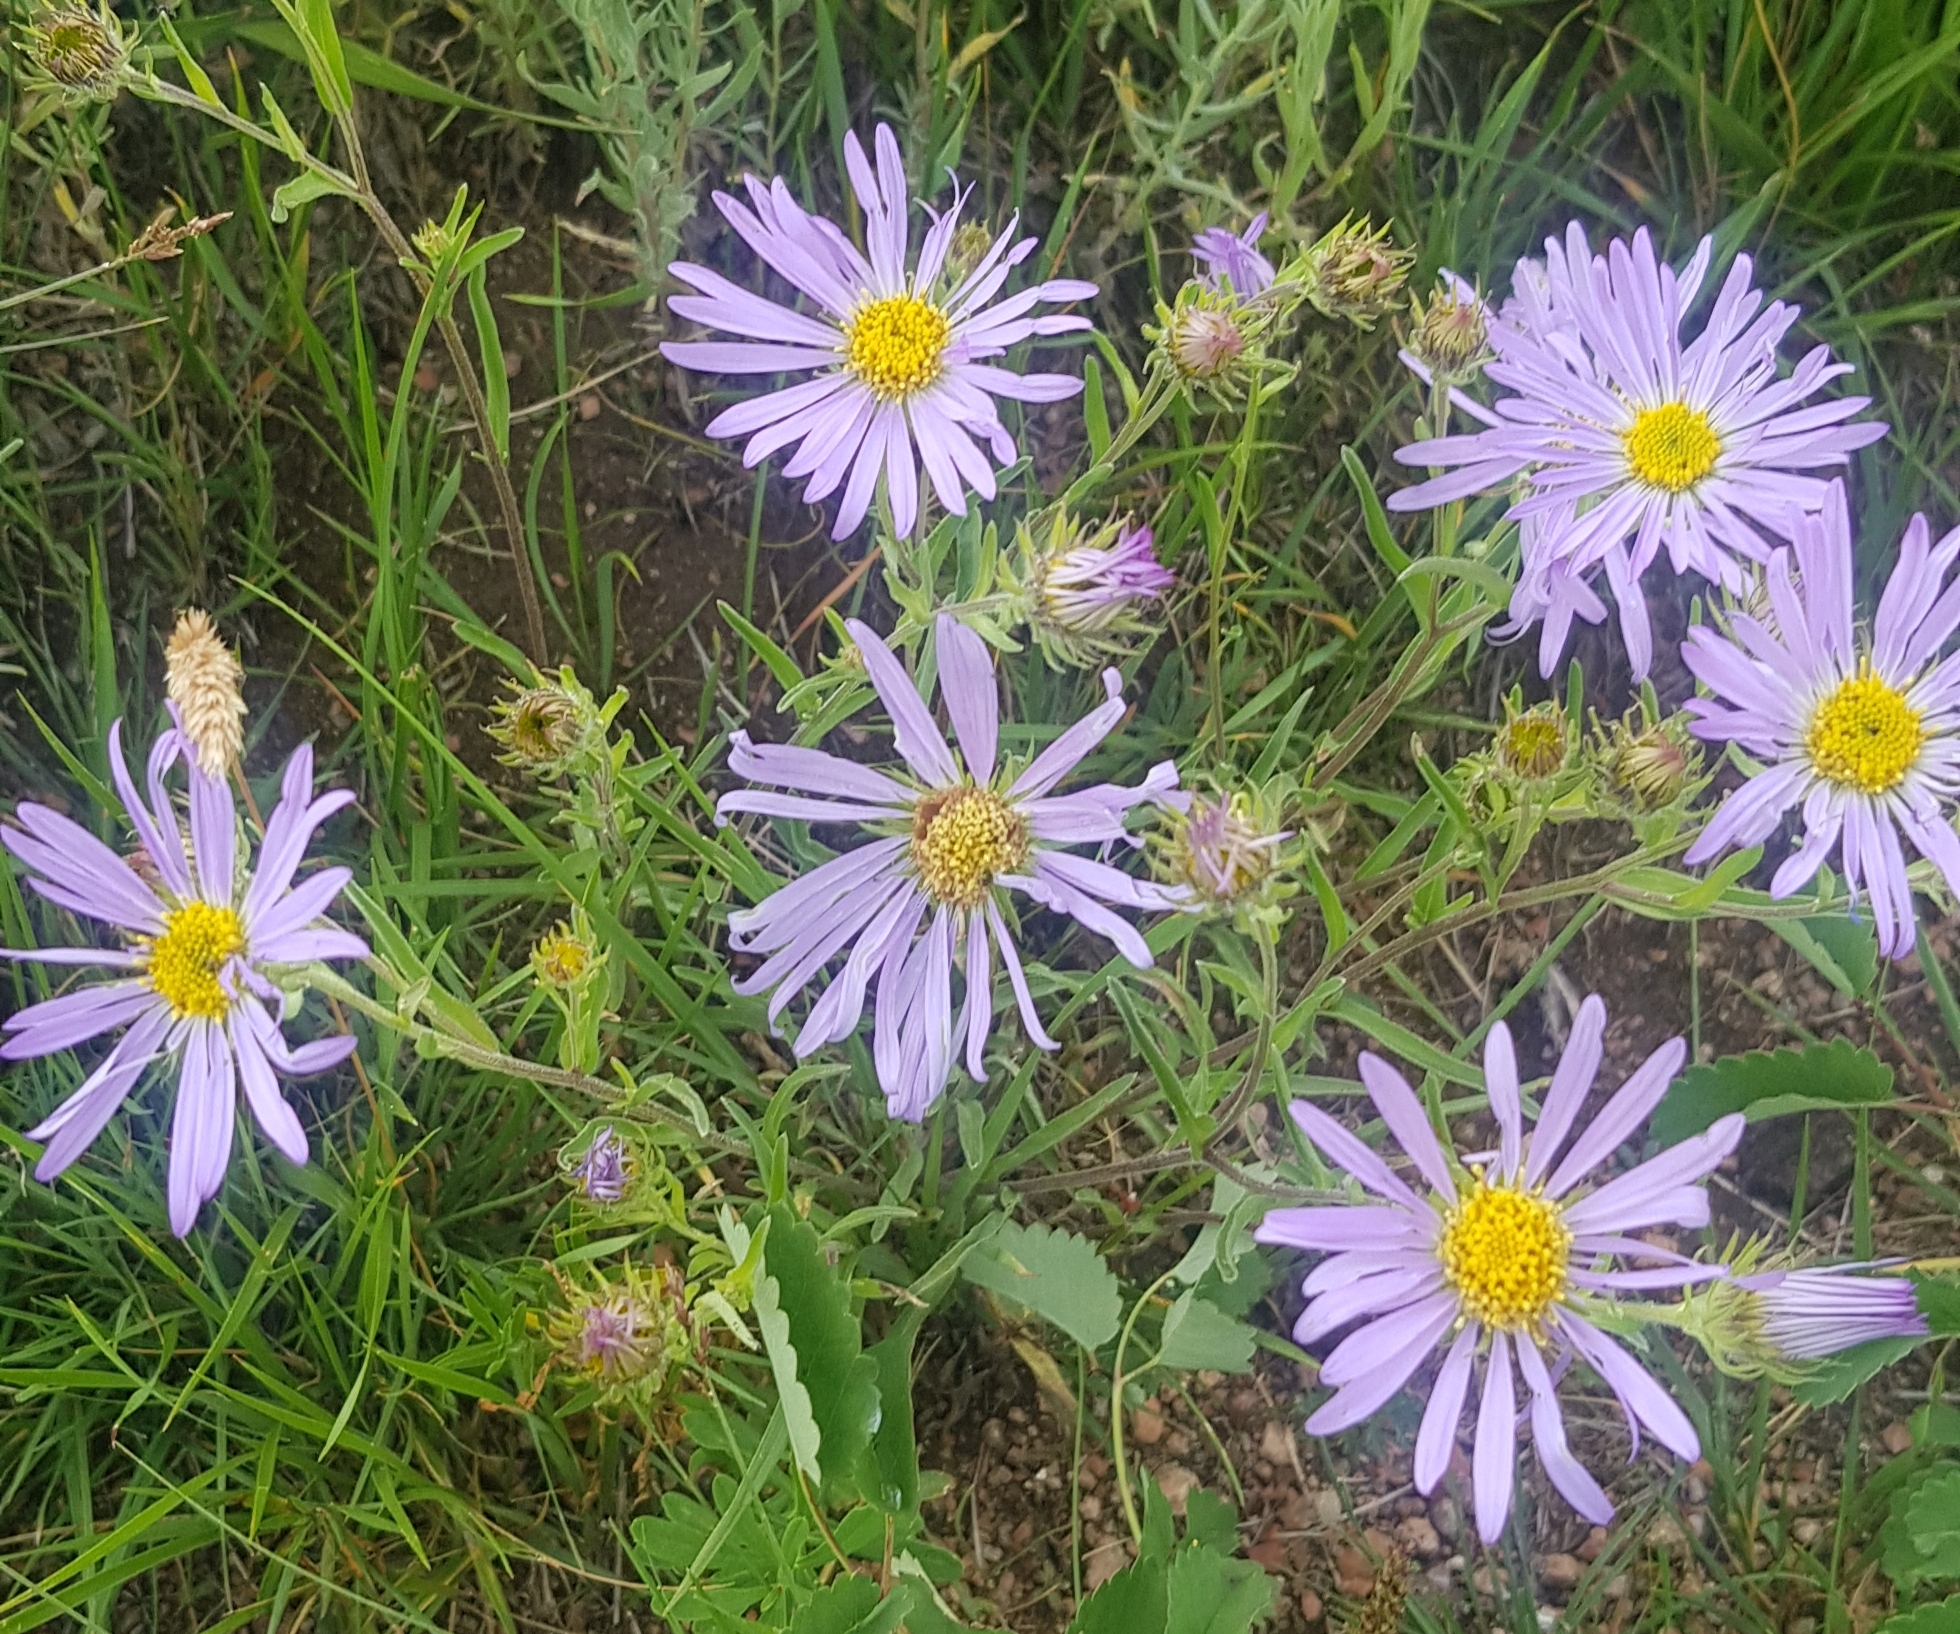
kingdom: Plantae
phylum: Tracheophyta
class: Magnoliopsida
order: Asterales
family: Asteraceae
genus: Aster
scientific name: Aster alpinus
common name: Alpine aster
